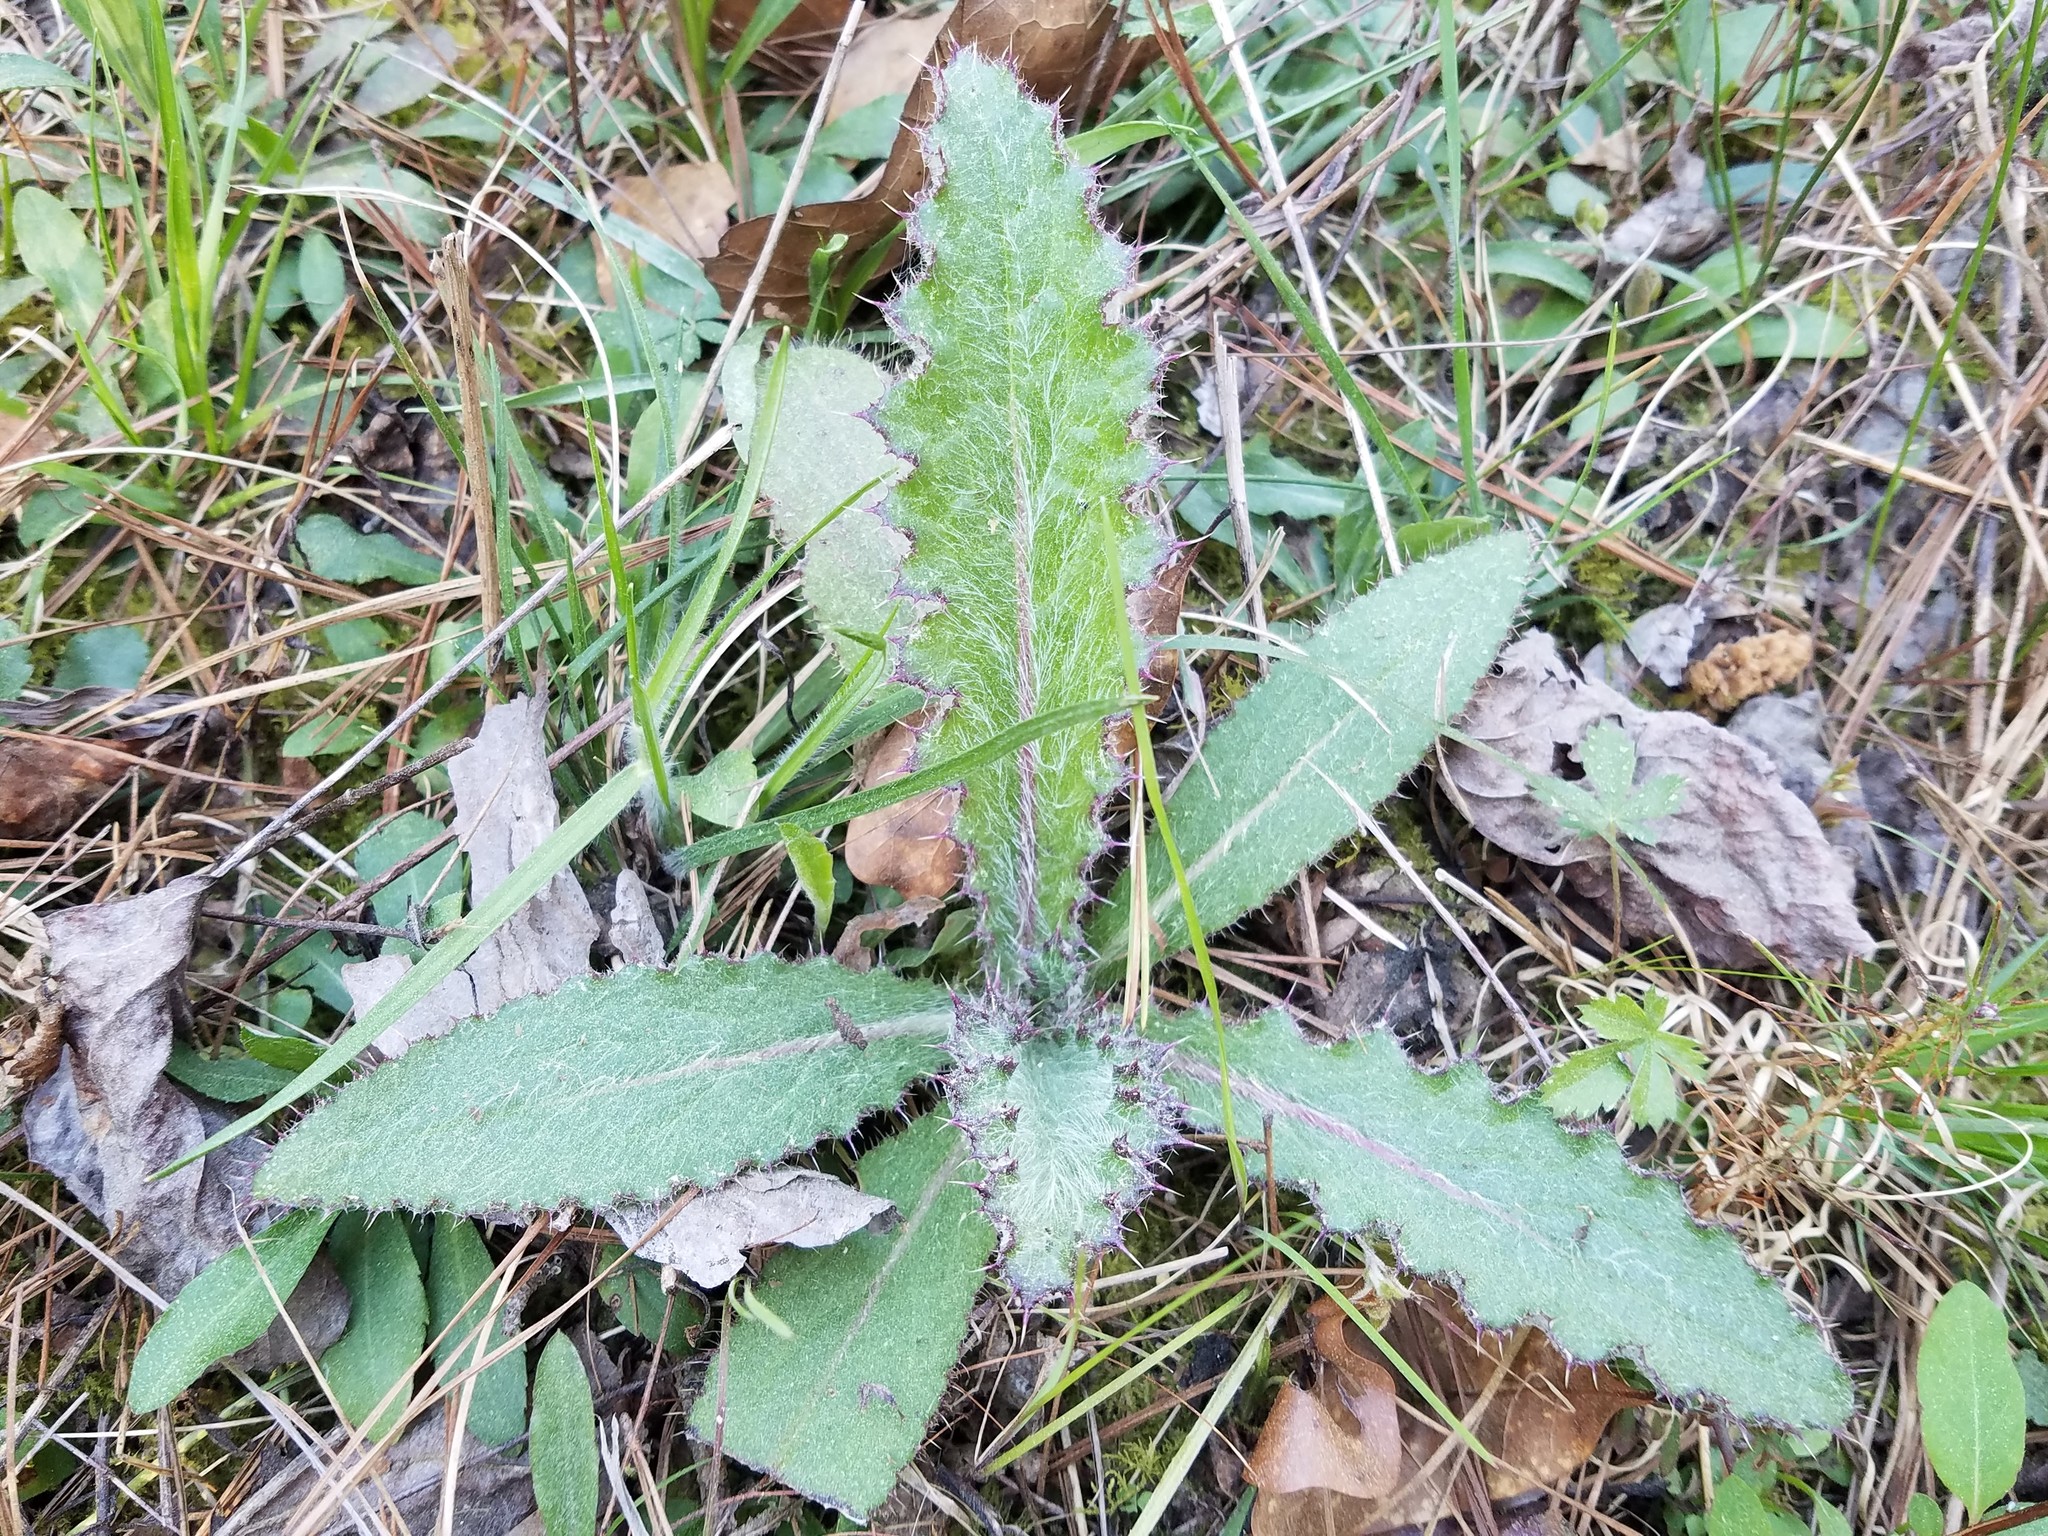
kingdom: Plantae
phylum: Tracheophyta
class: Magnoliopsida
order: Asterales
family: Asteraceae
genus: Cirsium
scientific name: Cirsium horridulum
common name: Bristly thistle
